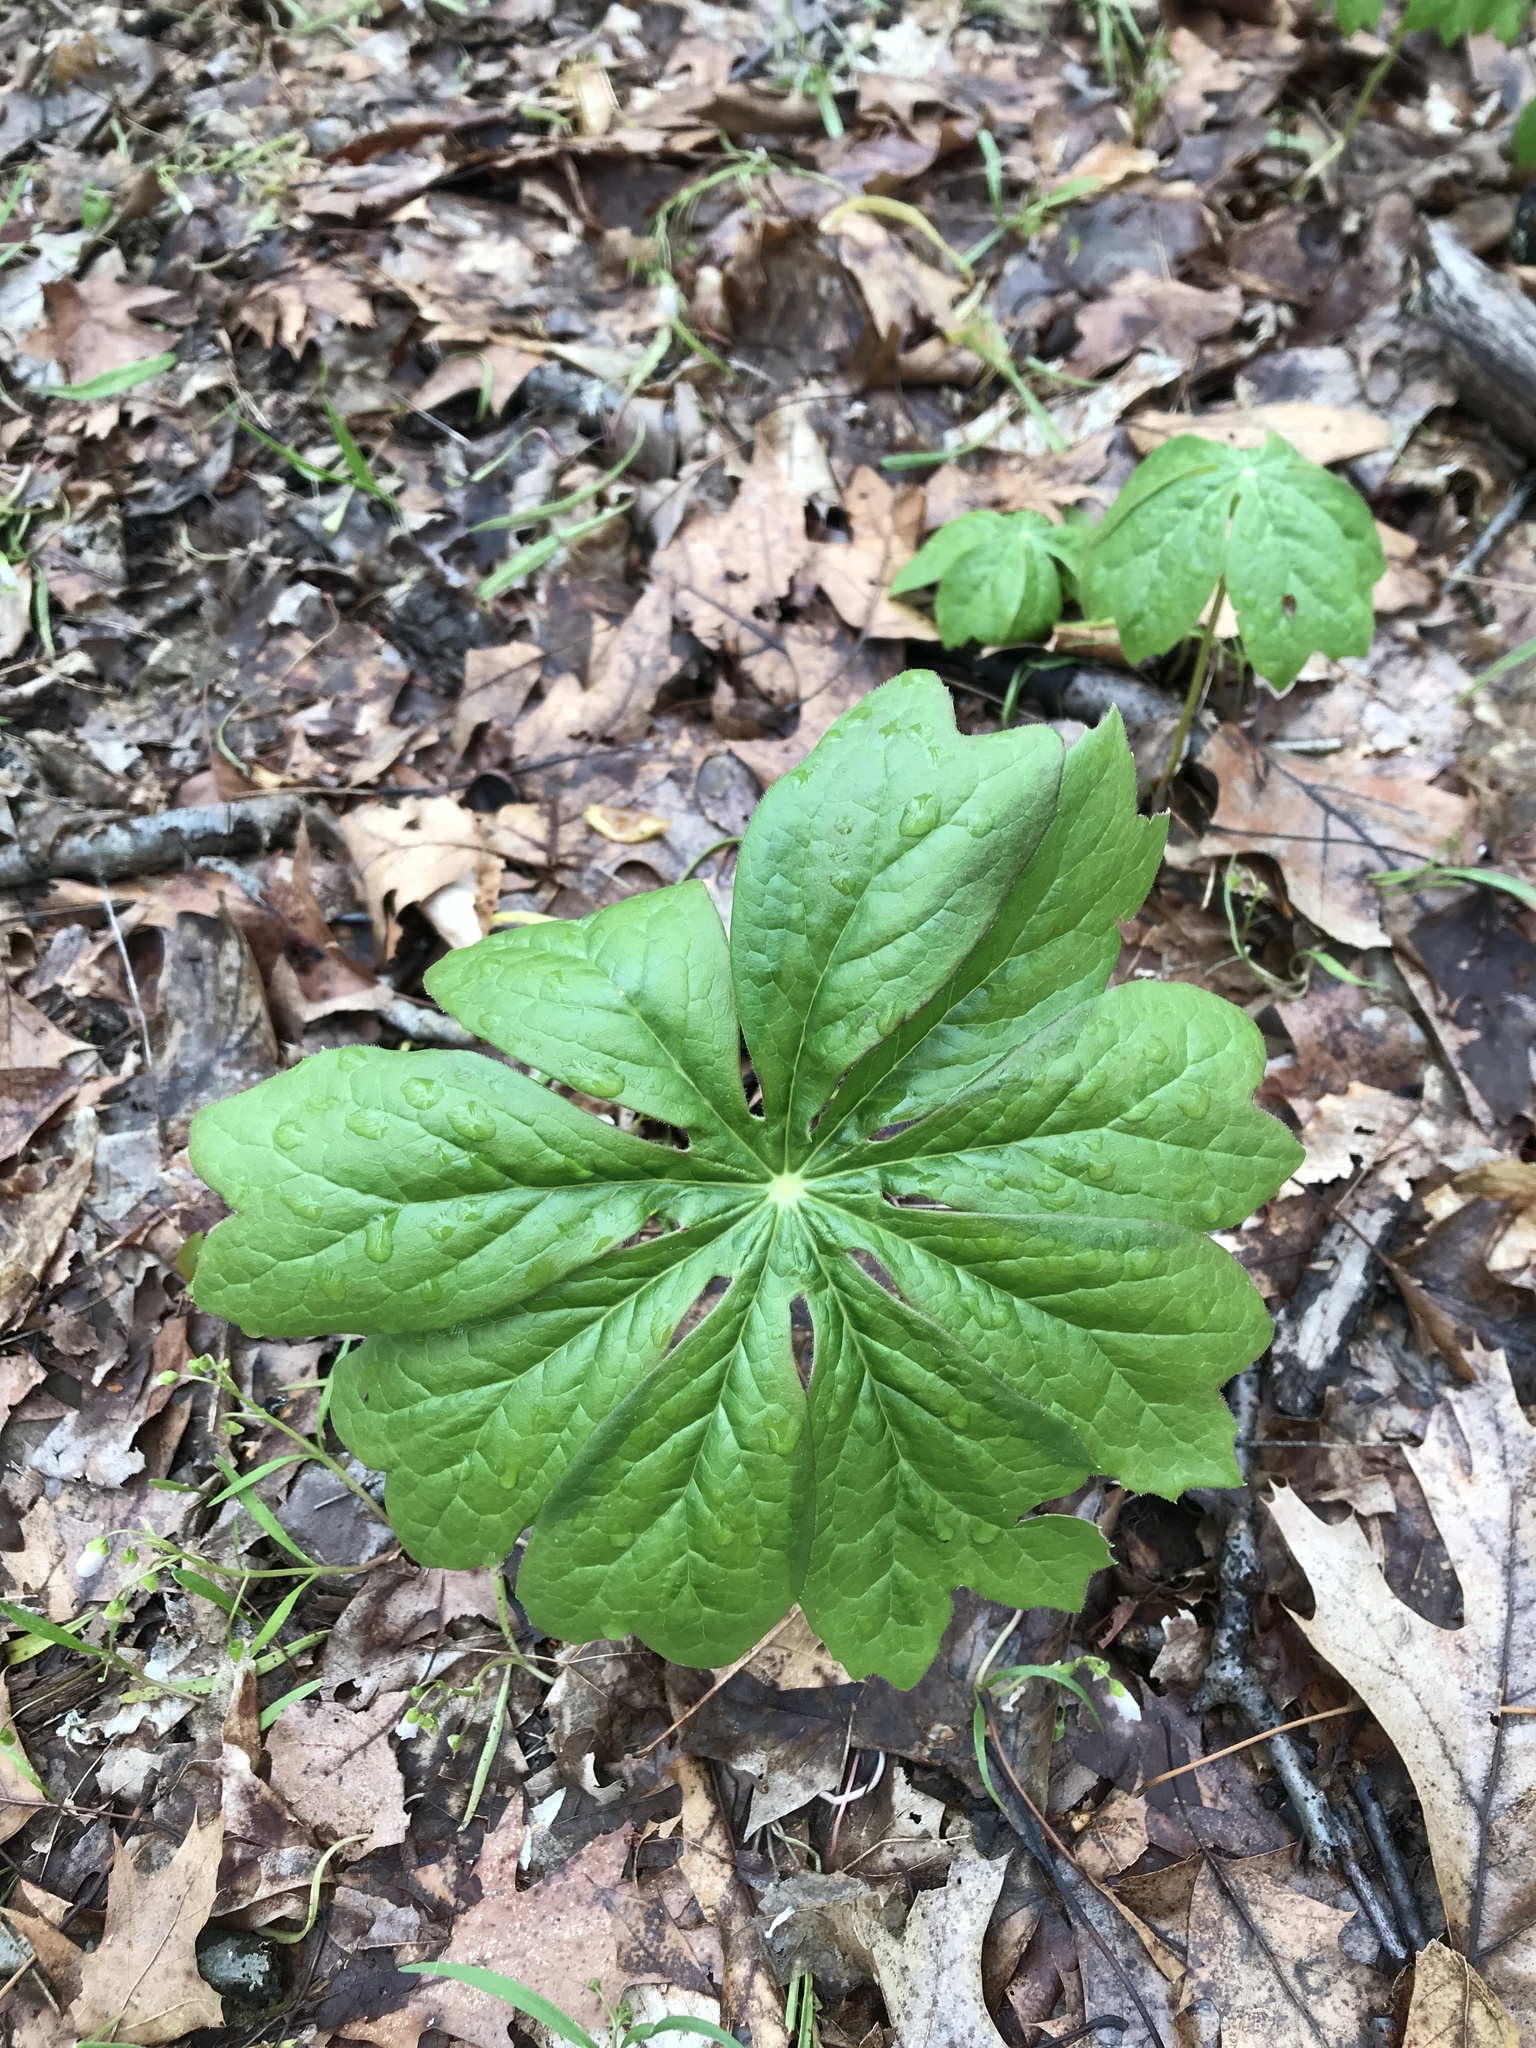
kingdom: Plantae
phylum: Tracheophyta
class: Magnoliopsida
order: Ranunculales
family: Berberidaceae
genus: Podophyllum
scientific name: Podophyllum peltatum
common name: Wild mandrake
